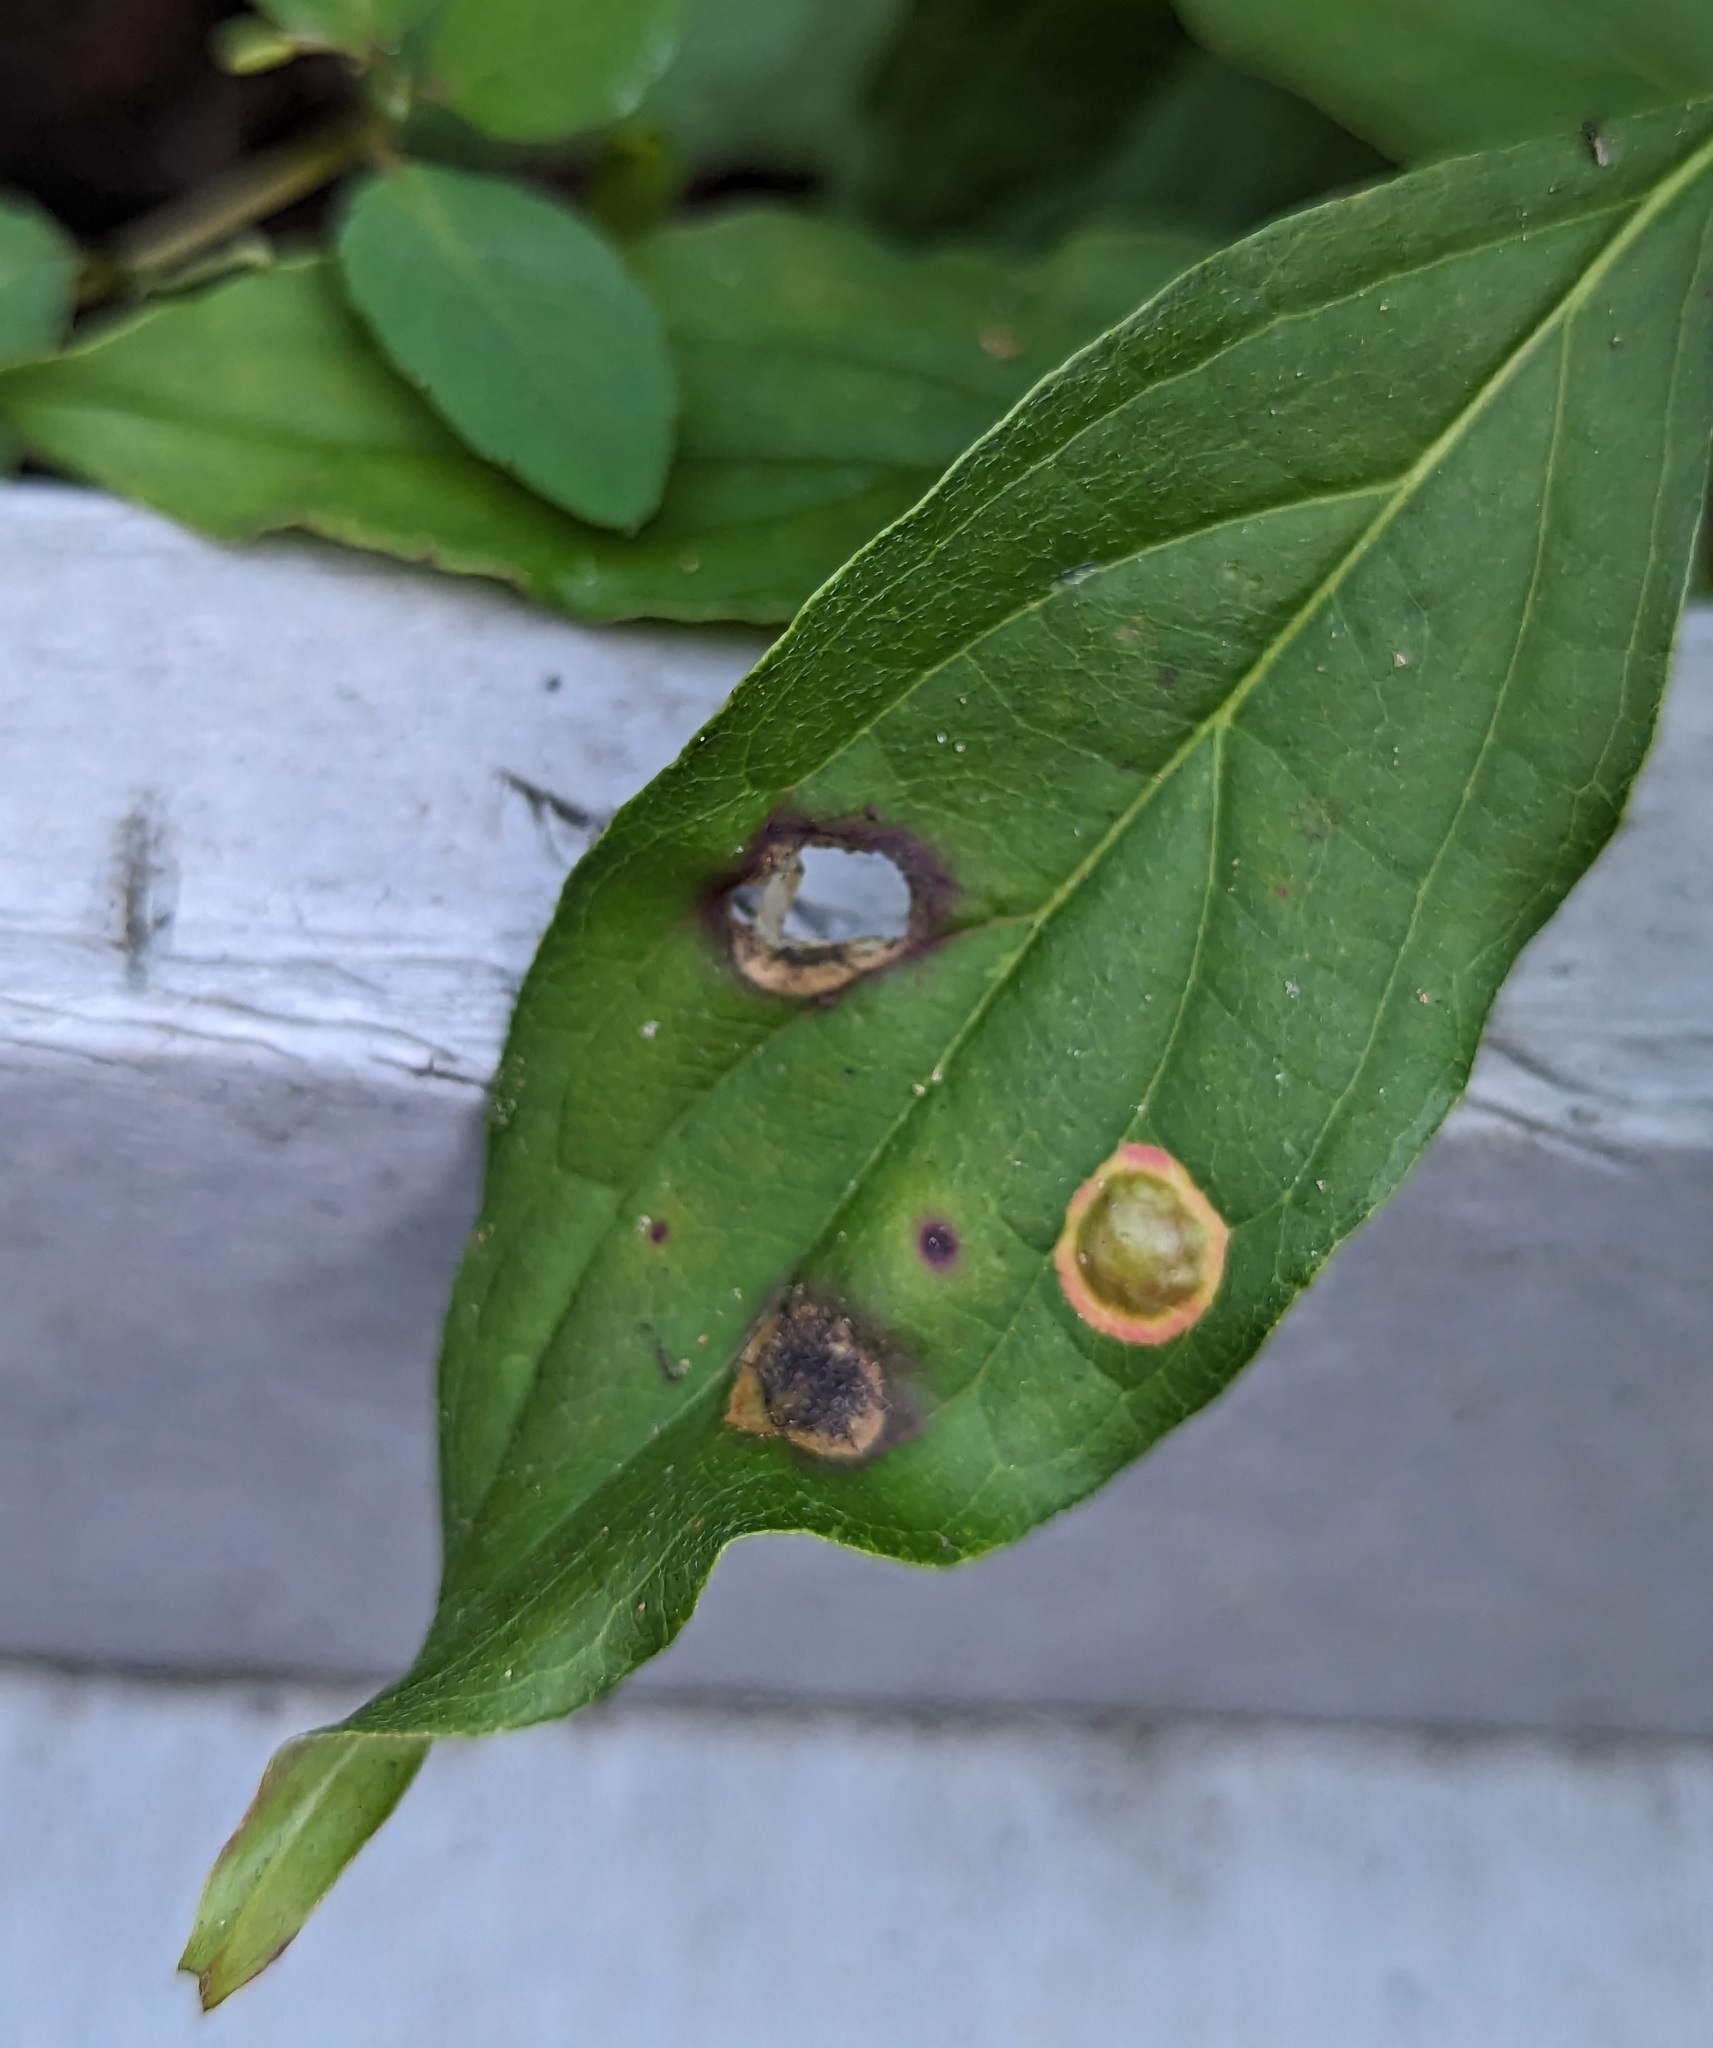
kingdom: Animalia
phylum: Arthropoda
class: Insecta
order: Diptera
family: Cecidomyiidae
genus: Parallelodiplosis
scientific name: Parallelodiplosis subtruncata
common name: Dogwood eyespot gall midge
